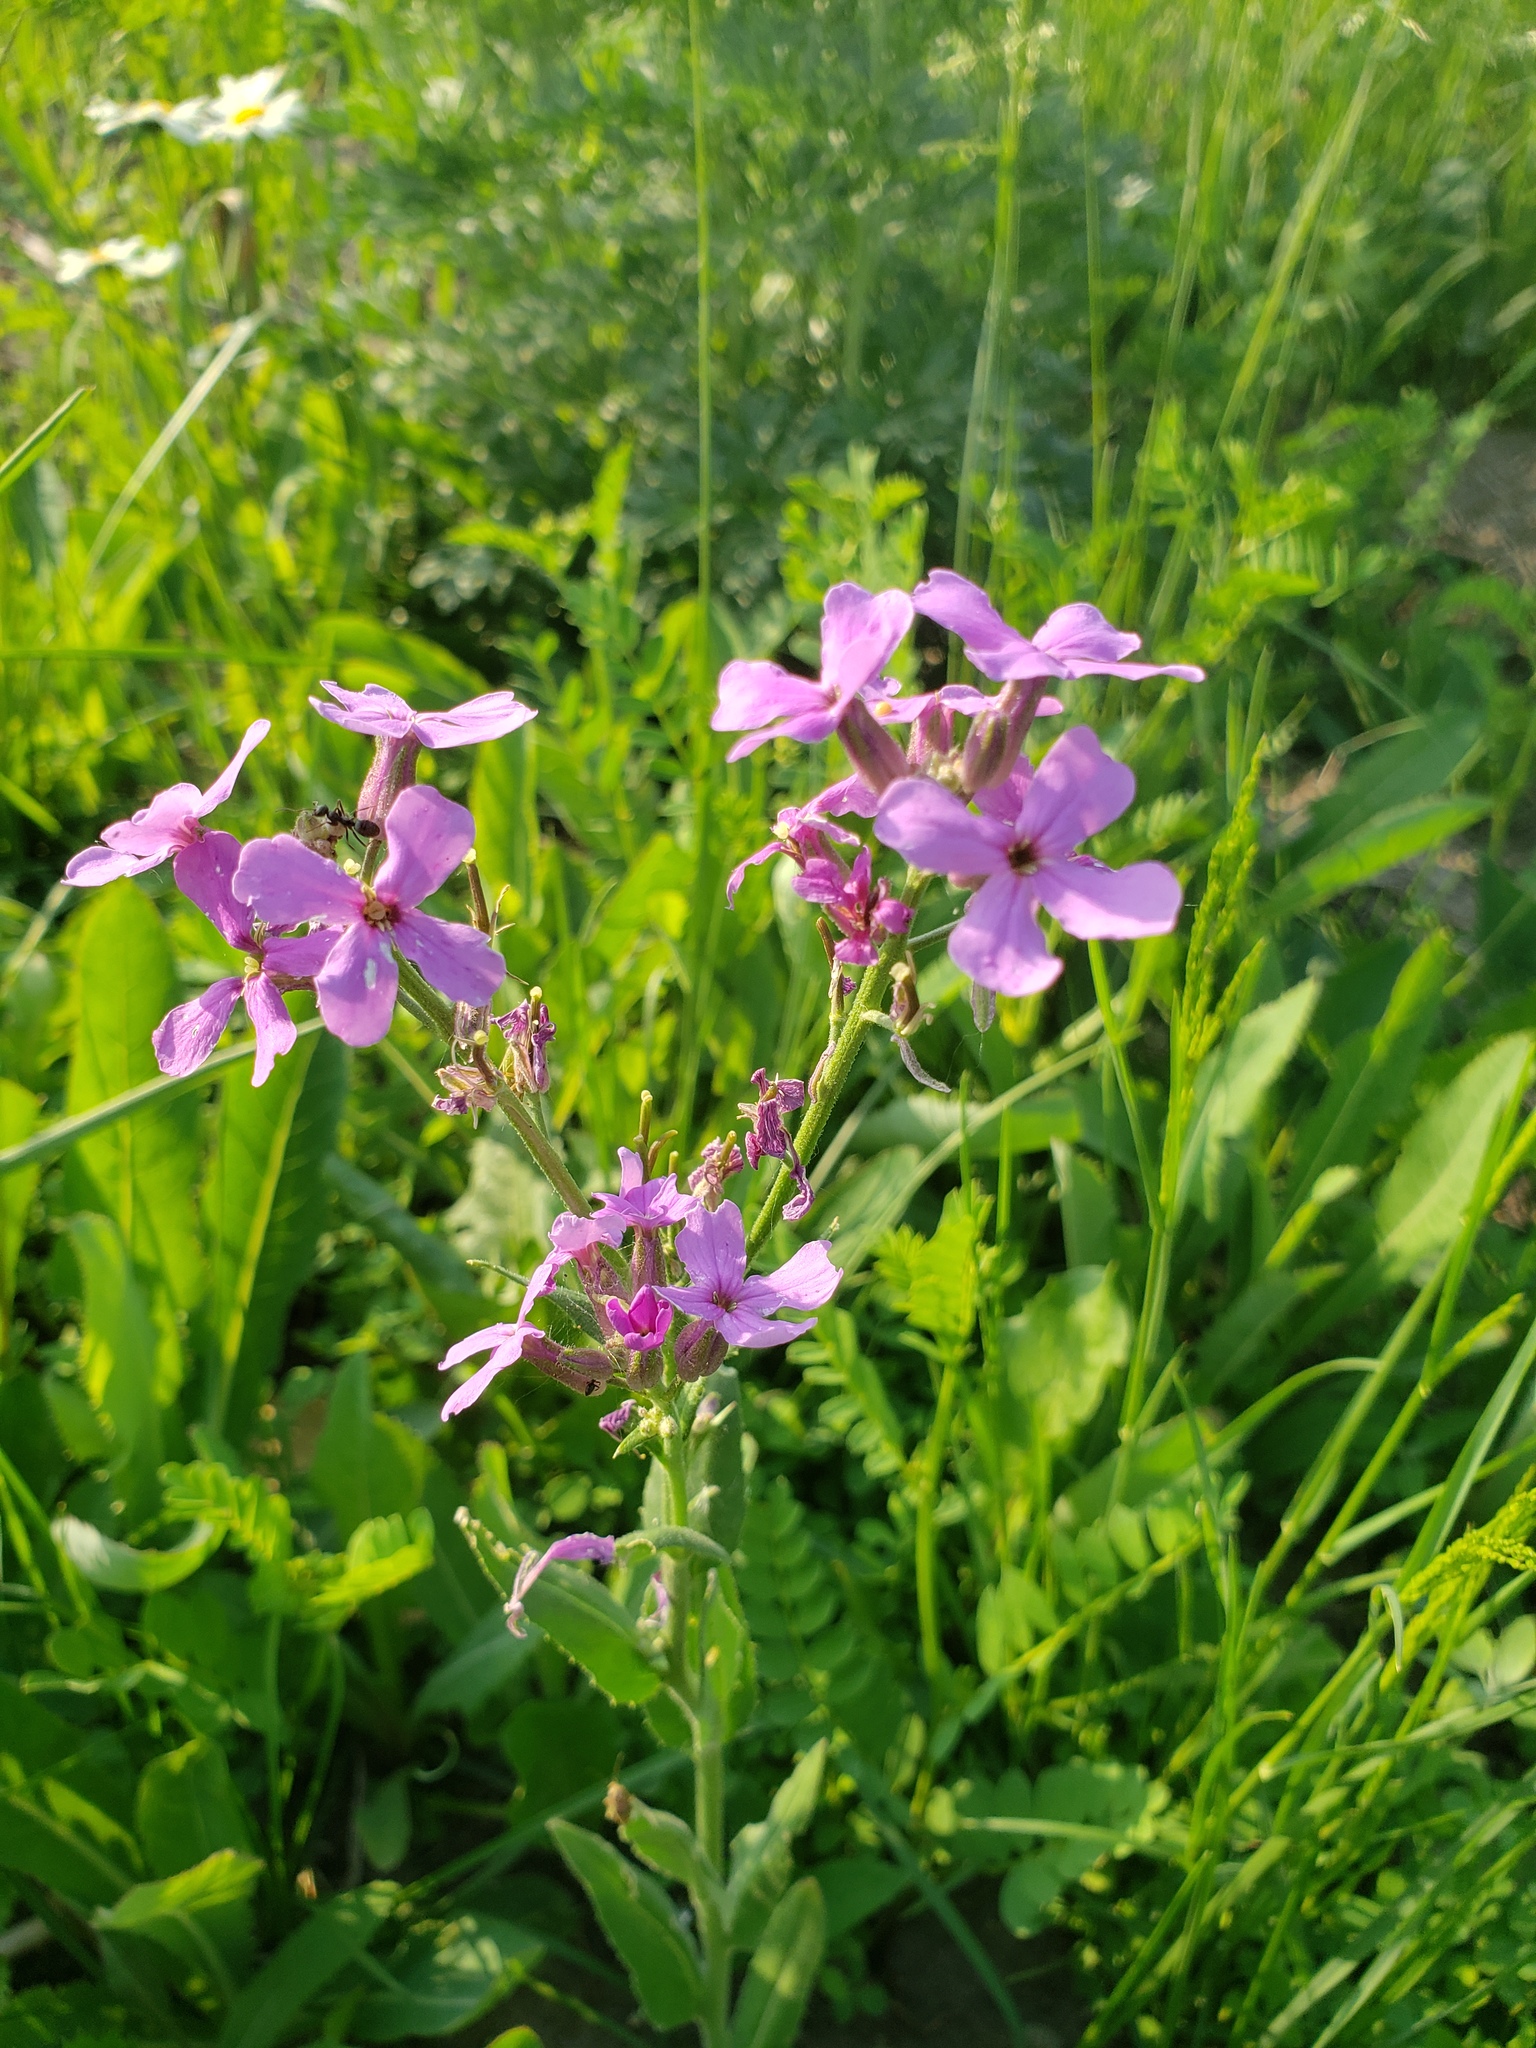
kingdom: Plantae
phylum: Tracheophyta
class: Magnoliopsida
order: Brassicales
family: Brassicaceae
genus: Hesperis
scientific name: Hesperis matronalis
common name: Dame's-violet
